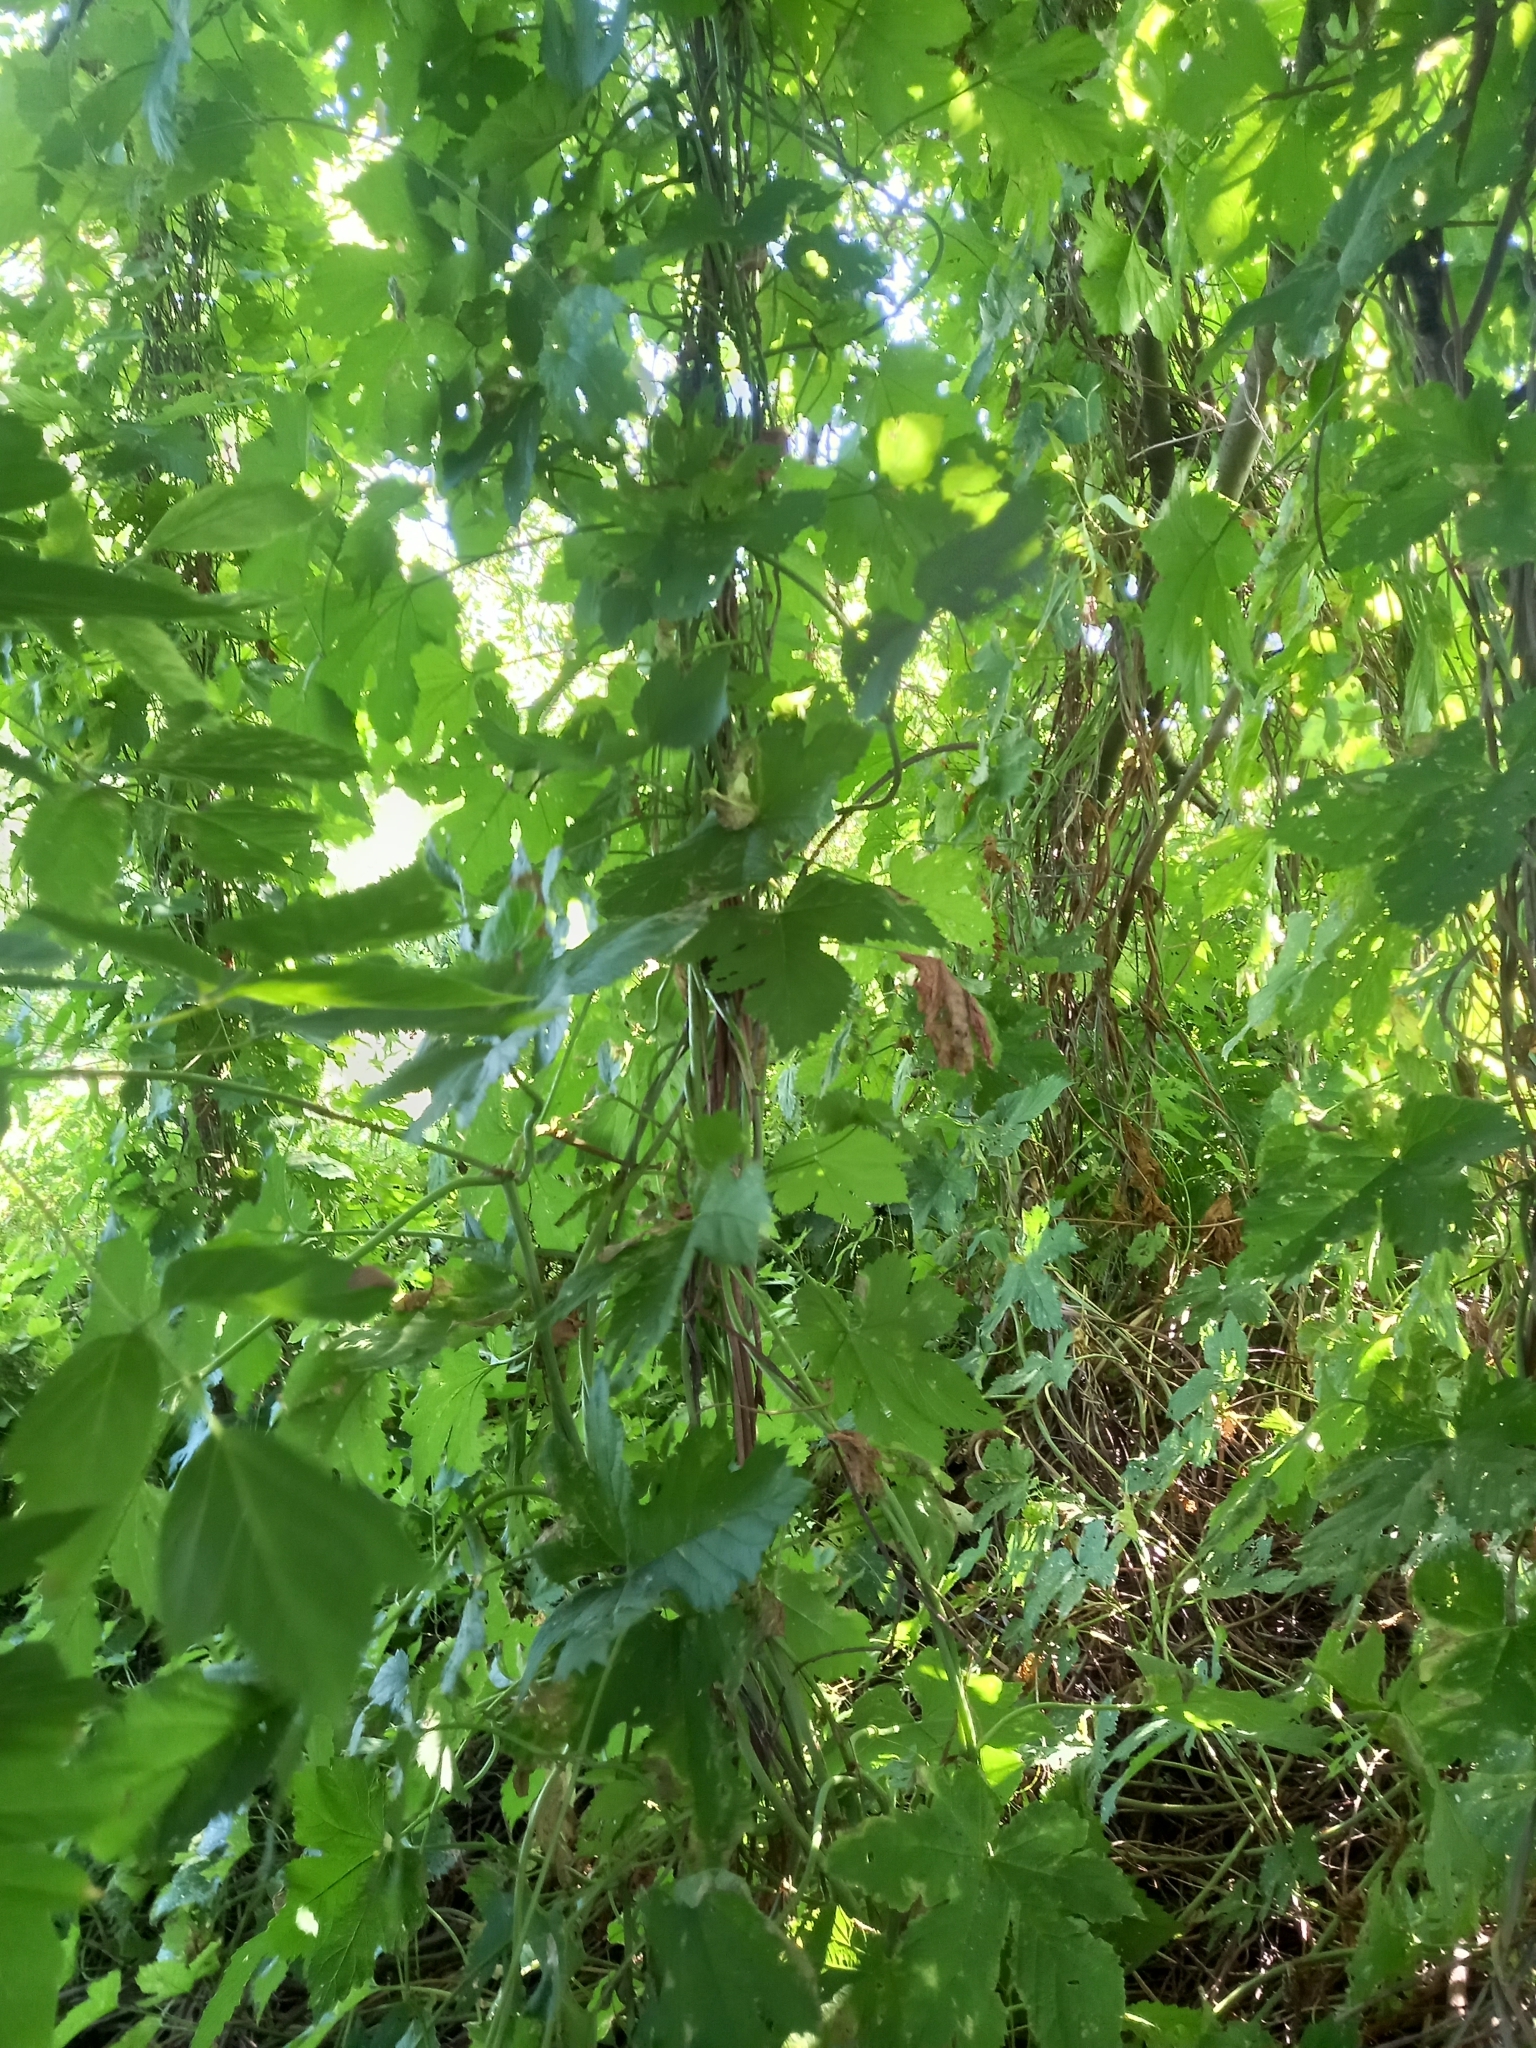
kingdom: Plantae
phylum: Tracheophyta
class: Magnoliopsida
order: Rosales
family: Cannabaceae
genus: Humulus
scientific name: Humulus lupulus
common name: Hop
